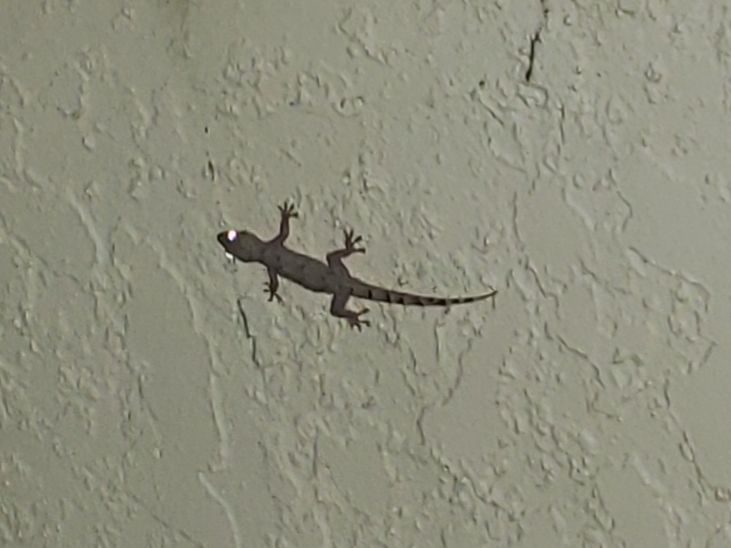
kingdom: Animalia
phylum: Chordata
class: Squamata
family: Gekkonidae
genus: Hemidactylus
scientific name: Hemidactylus mabouia
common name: House gecko
